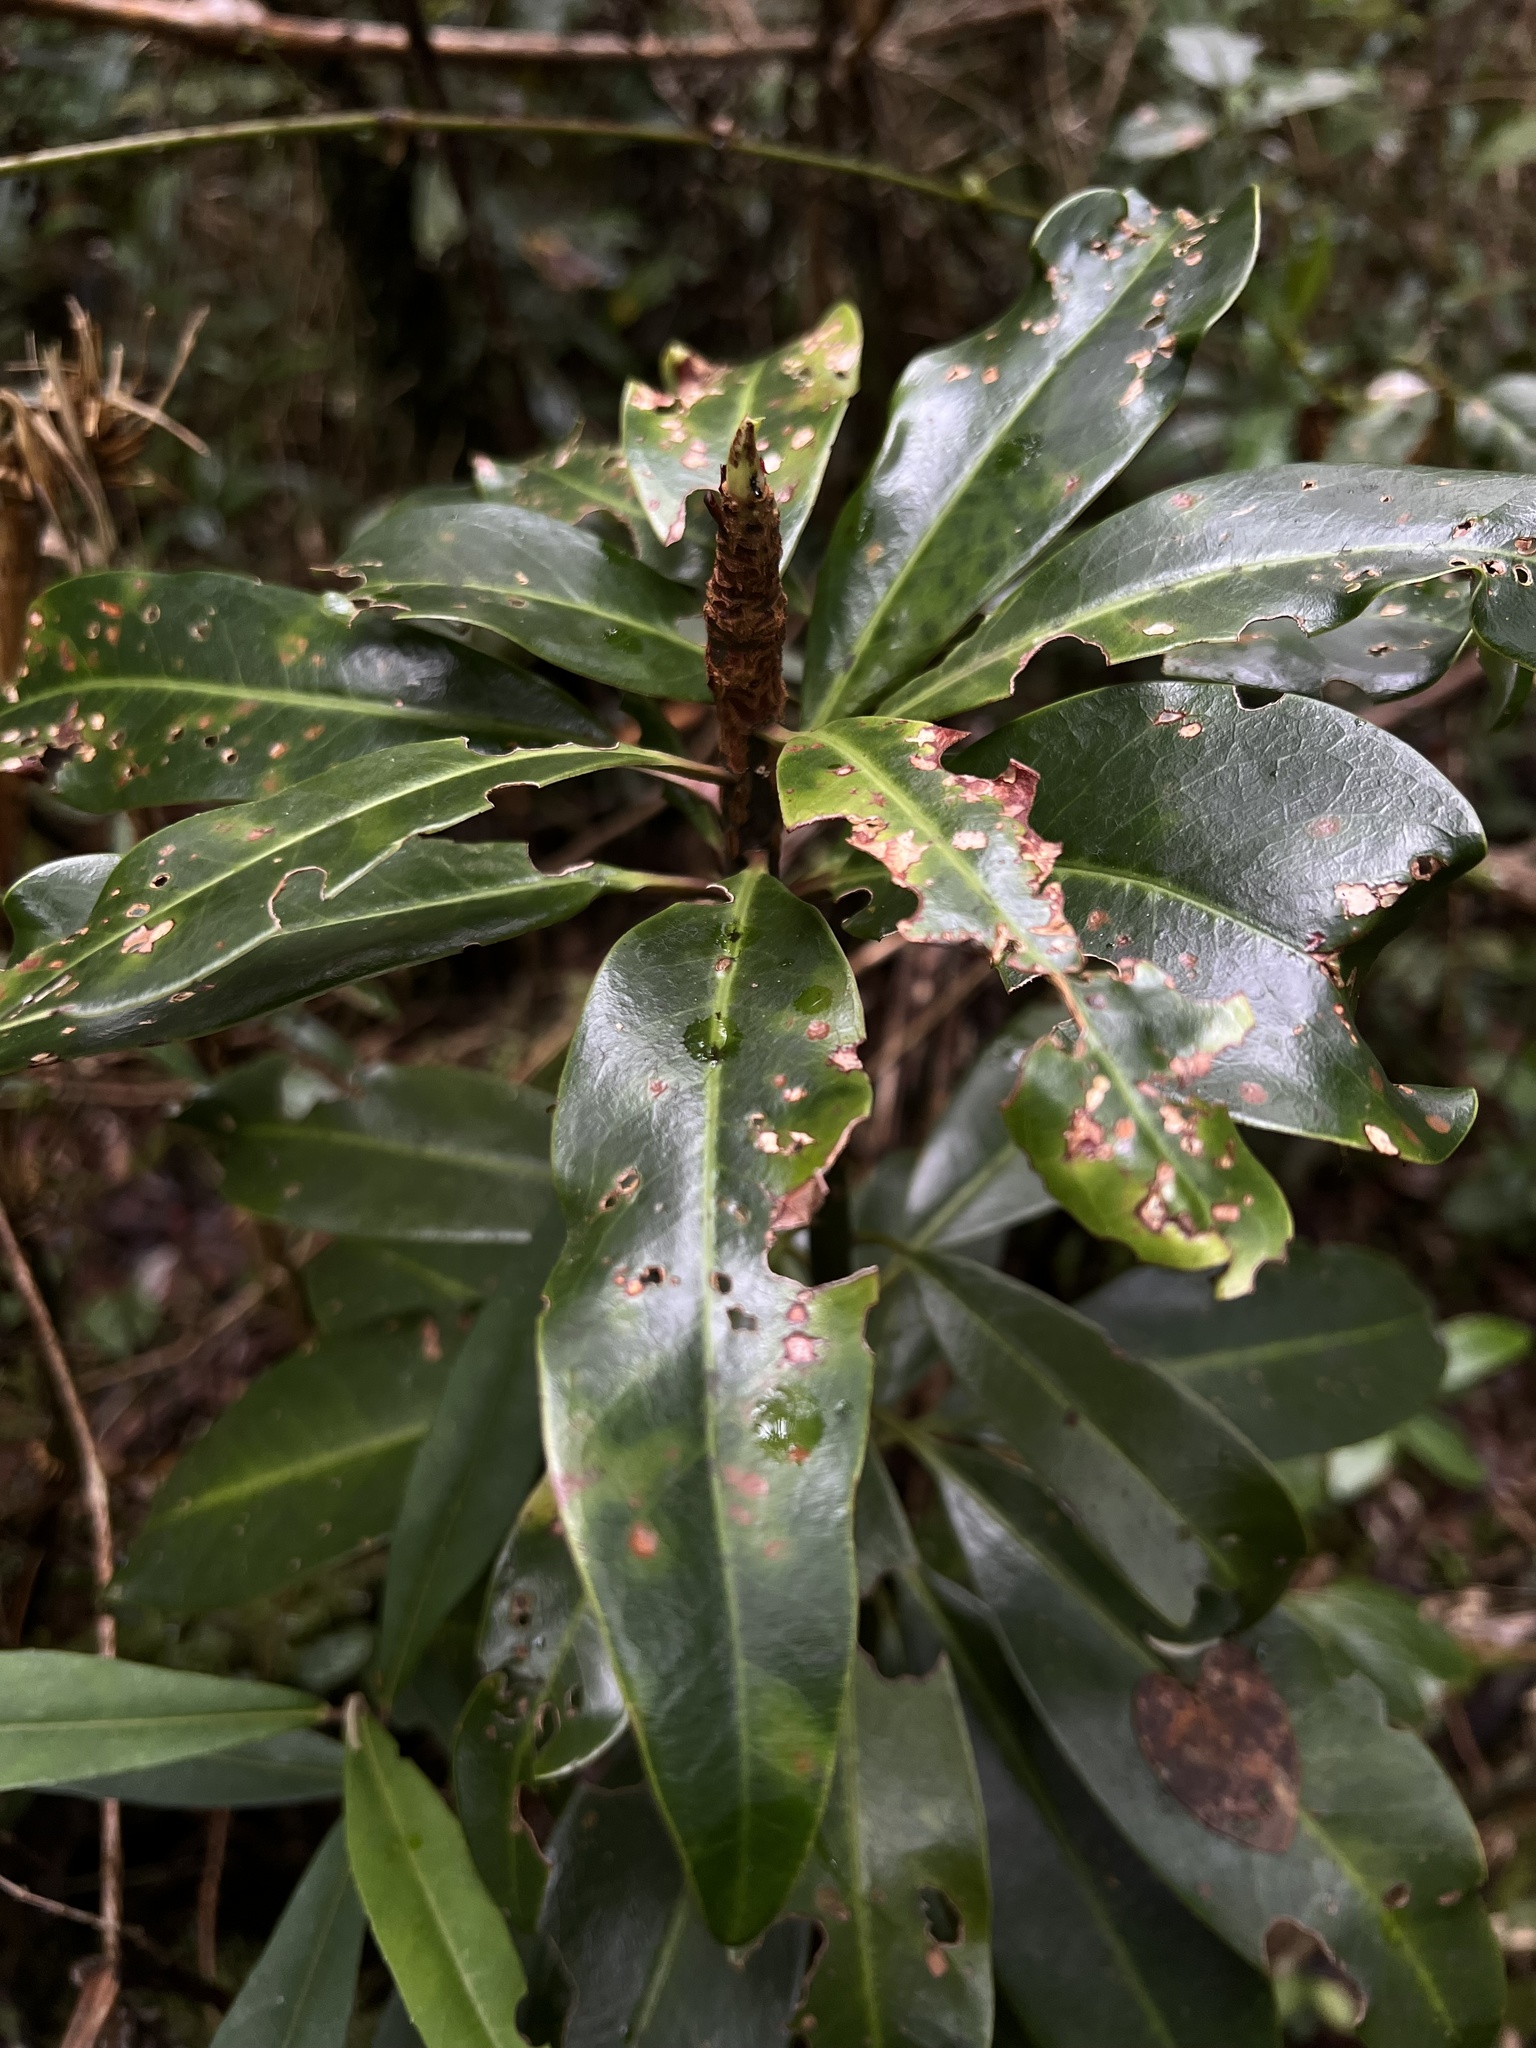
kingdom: Plantae
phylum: Tracheophyta
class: Magnoliopsida
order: Canellales
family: Winteraceae
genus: Drimys
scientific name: Drimys granadensis
